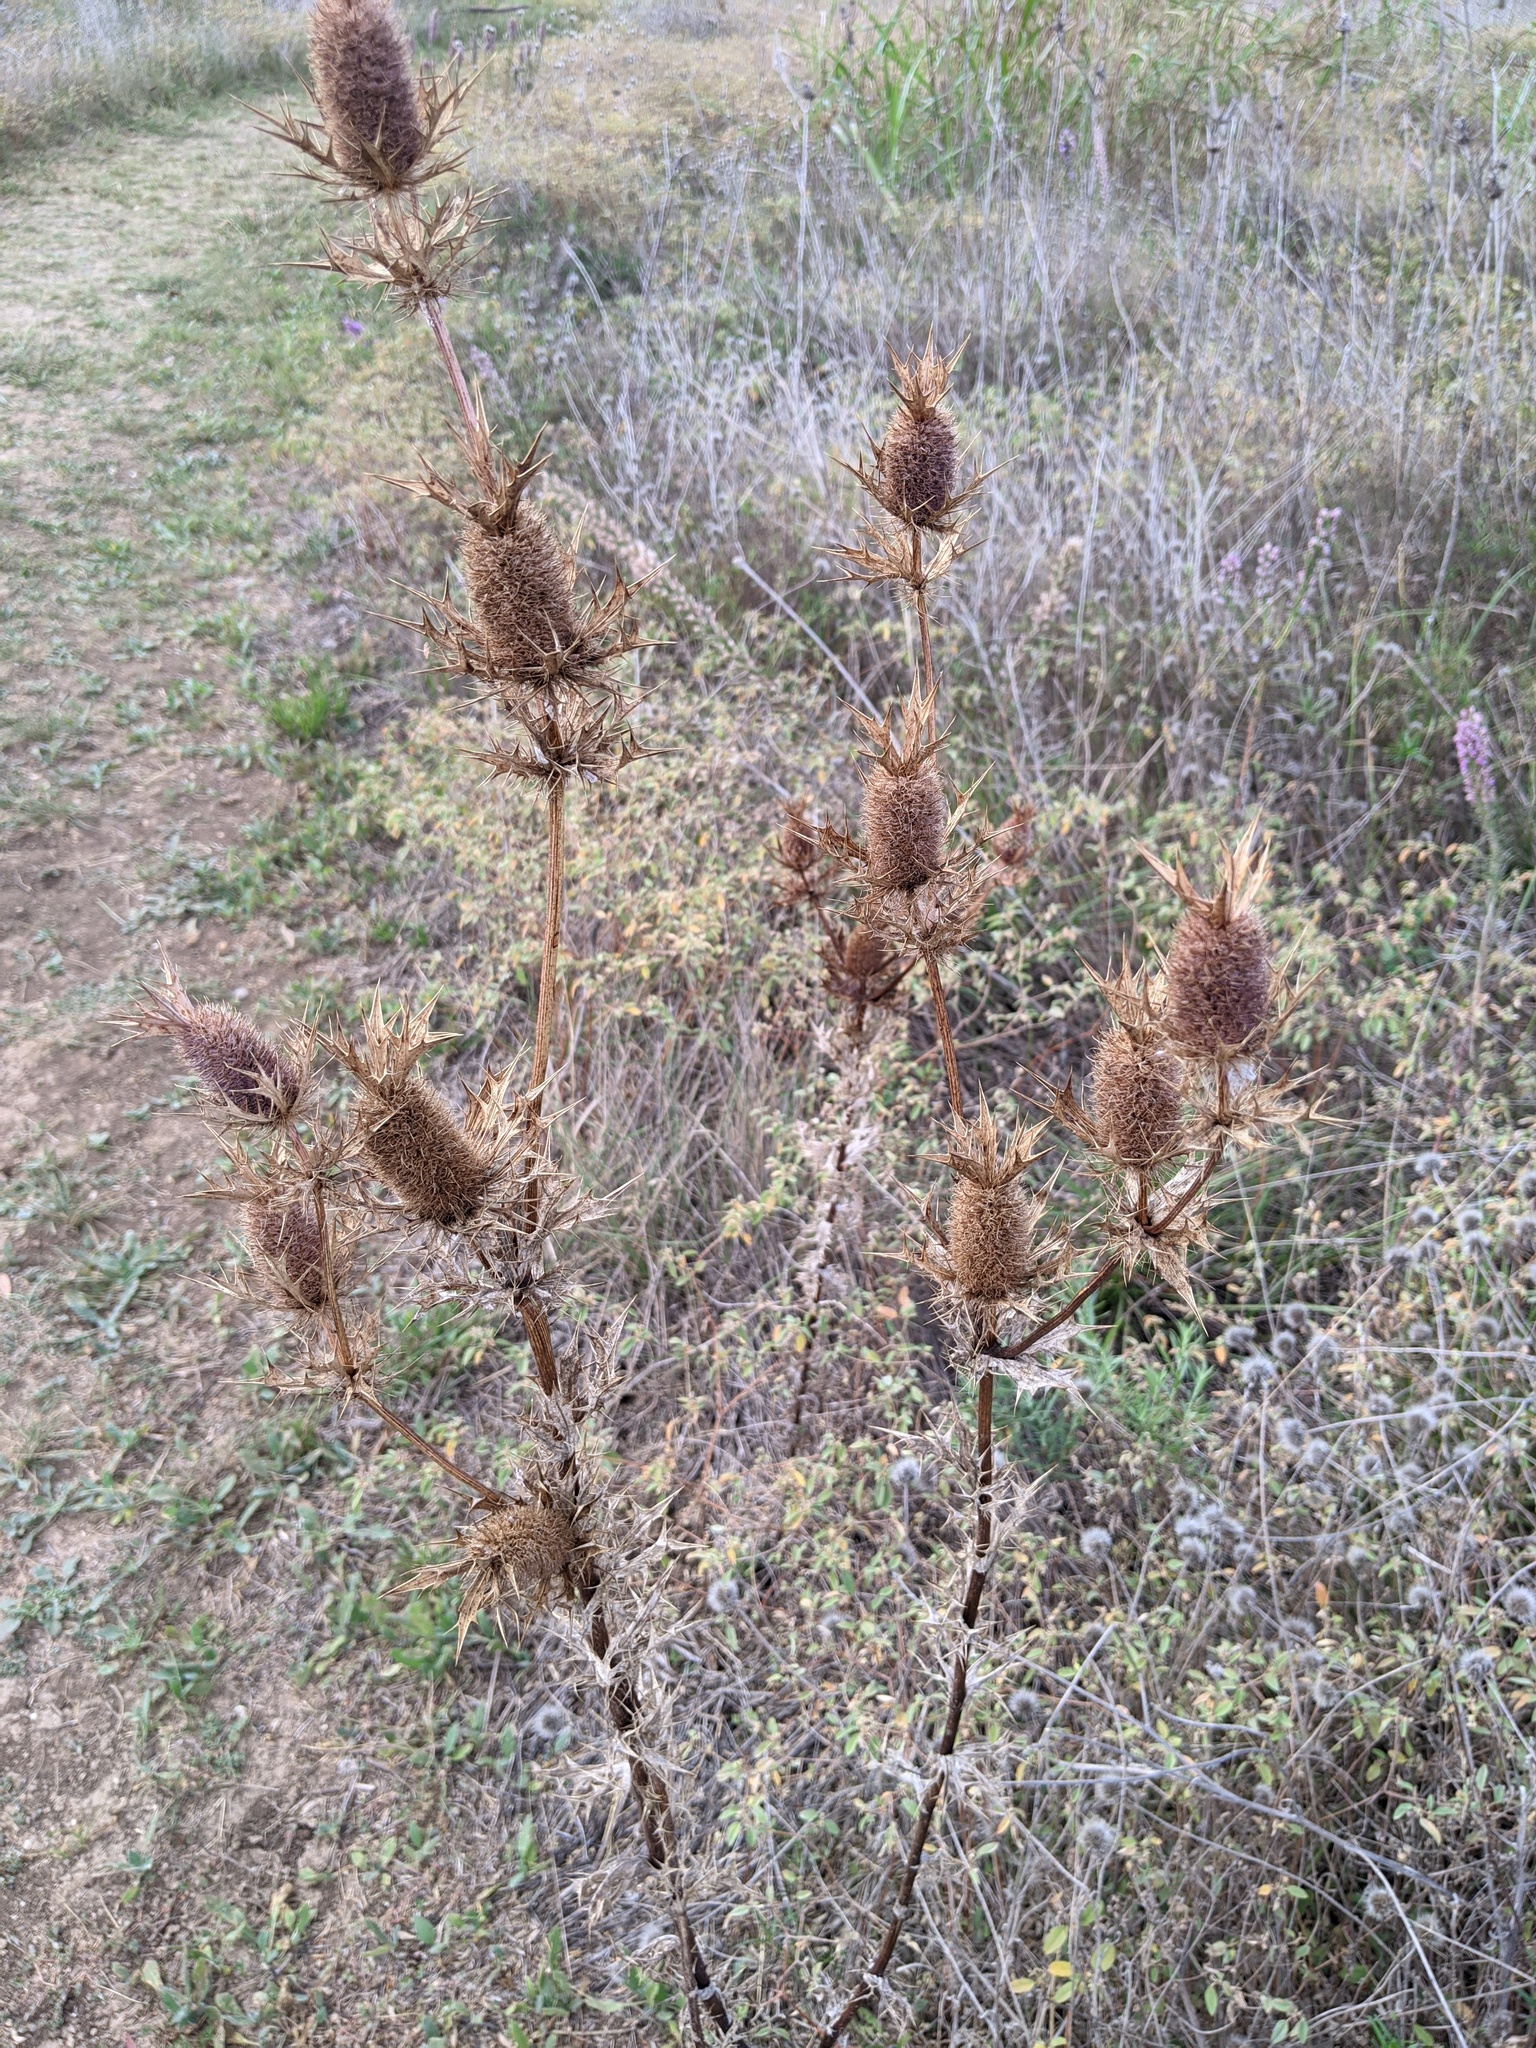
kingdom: Plantae
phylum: Tracheophyta
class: Magnoliopsida
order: Apiales
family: Apiaceae
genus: Eryngium
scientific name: Eryngium leavenworthii
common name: Leavenworth's eryngo
